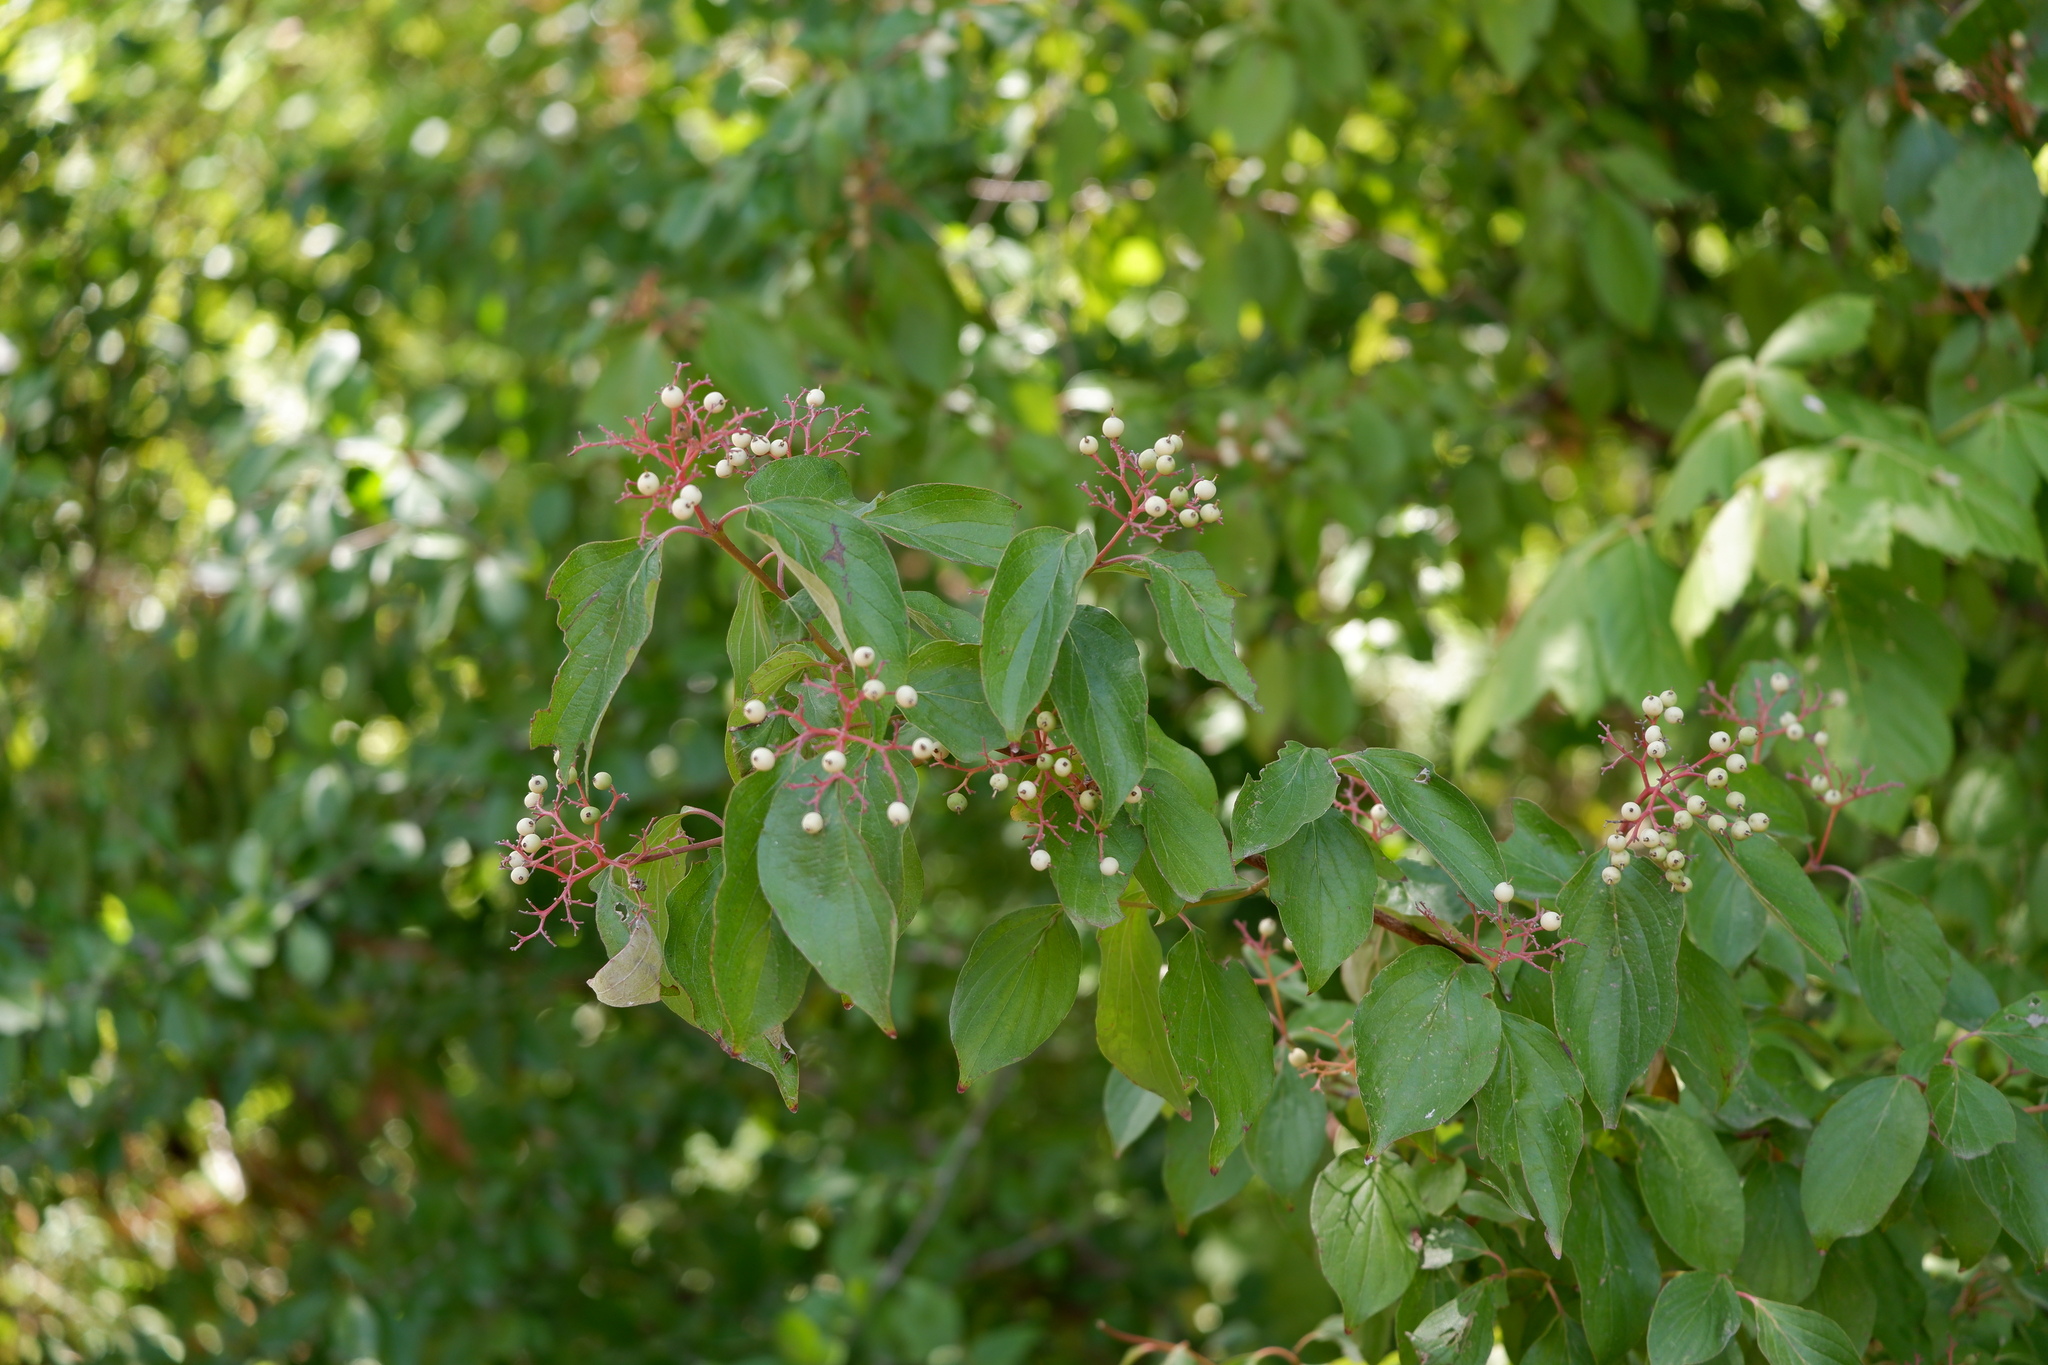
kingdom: Plantae
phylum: Tracheophyta
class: Magnoliopsida
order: Cornales
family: Cornaceae
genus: Cornus
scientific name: Cornus drummondii
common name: Rough-leaf dogwood
